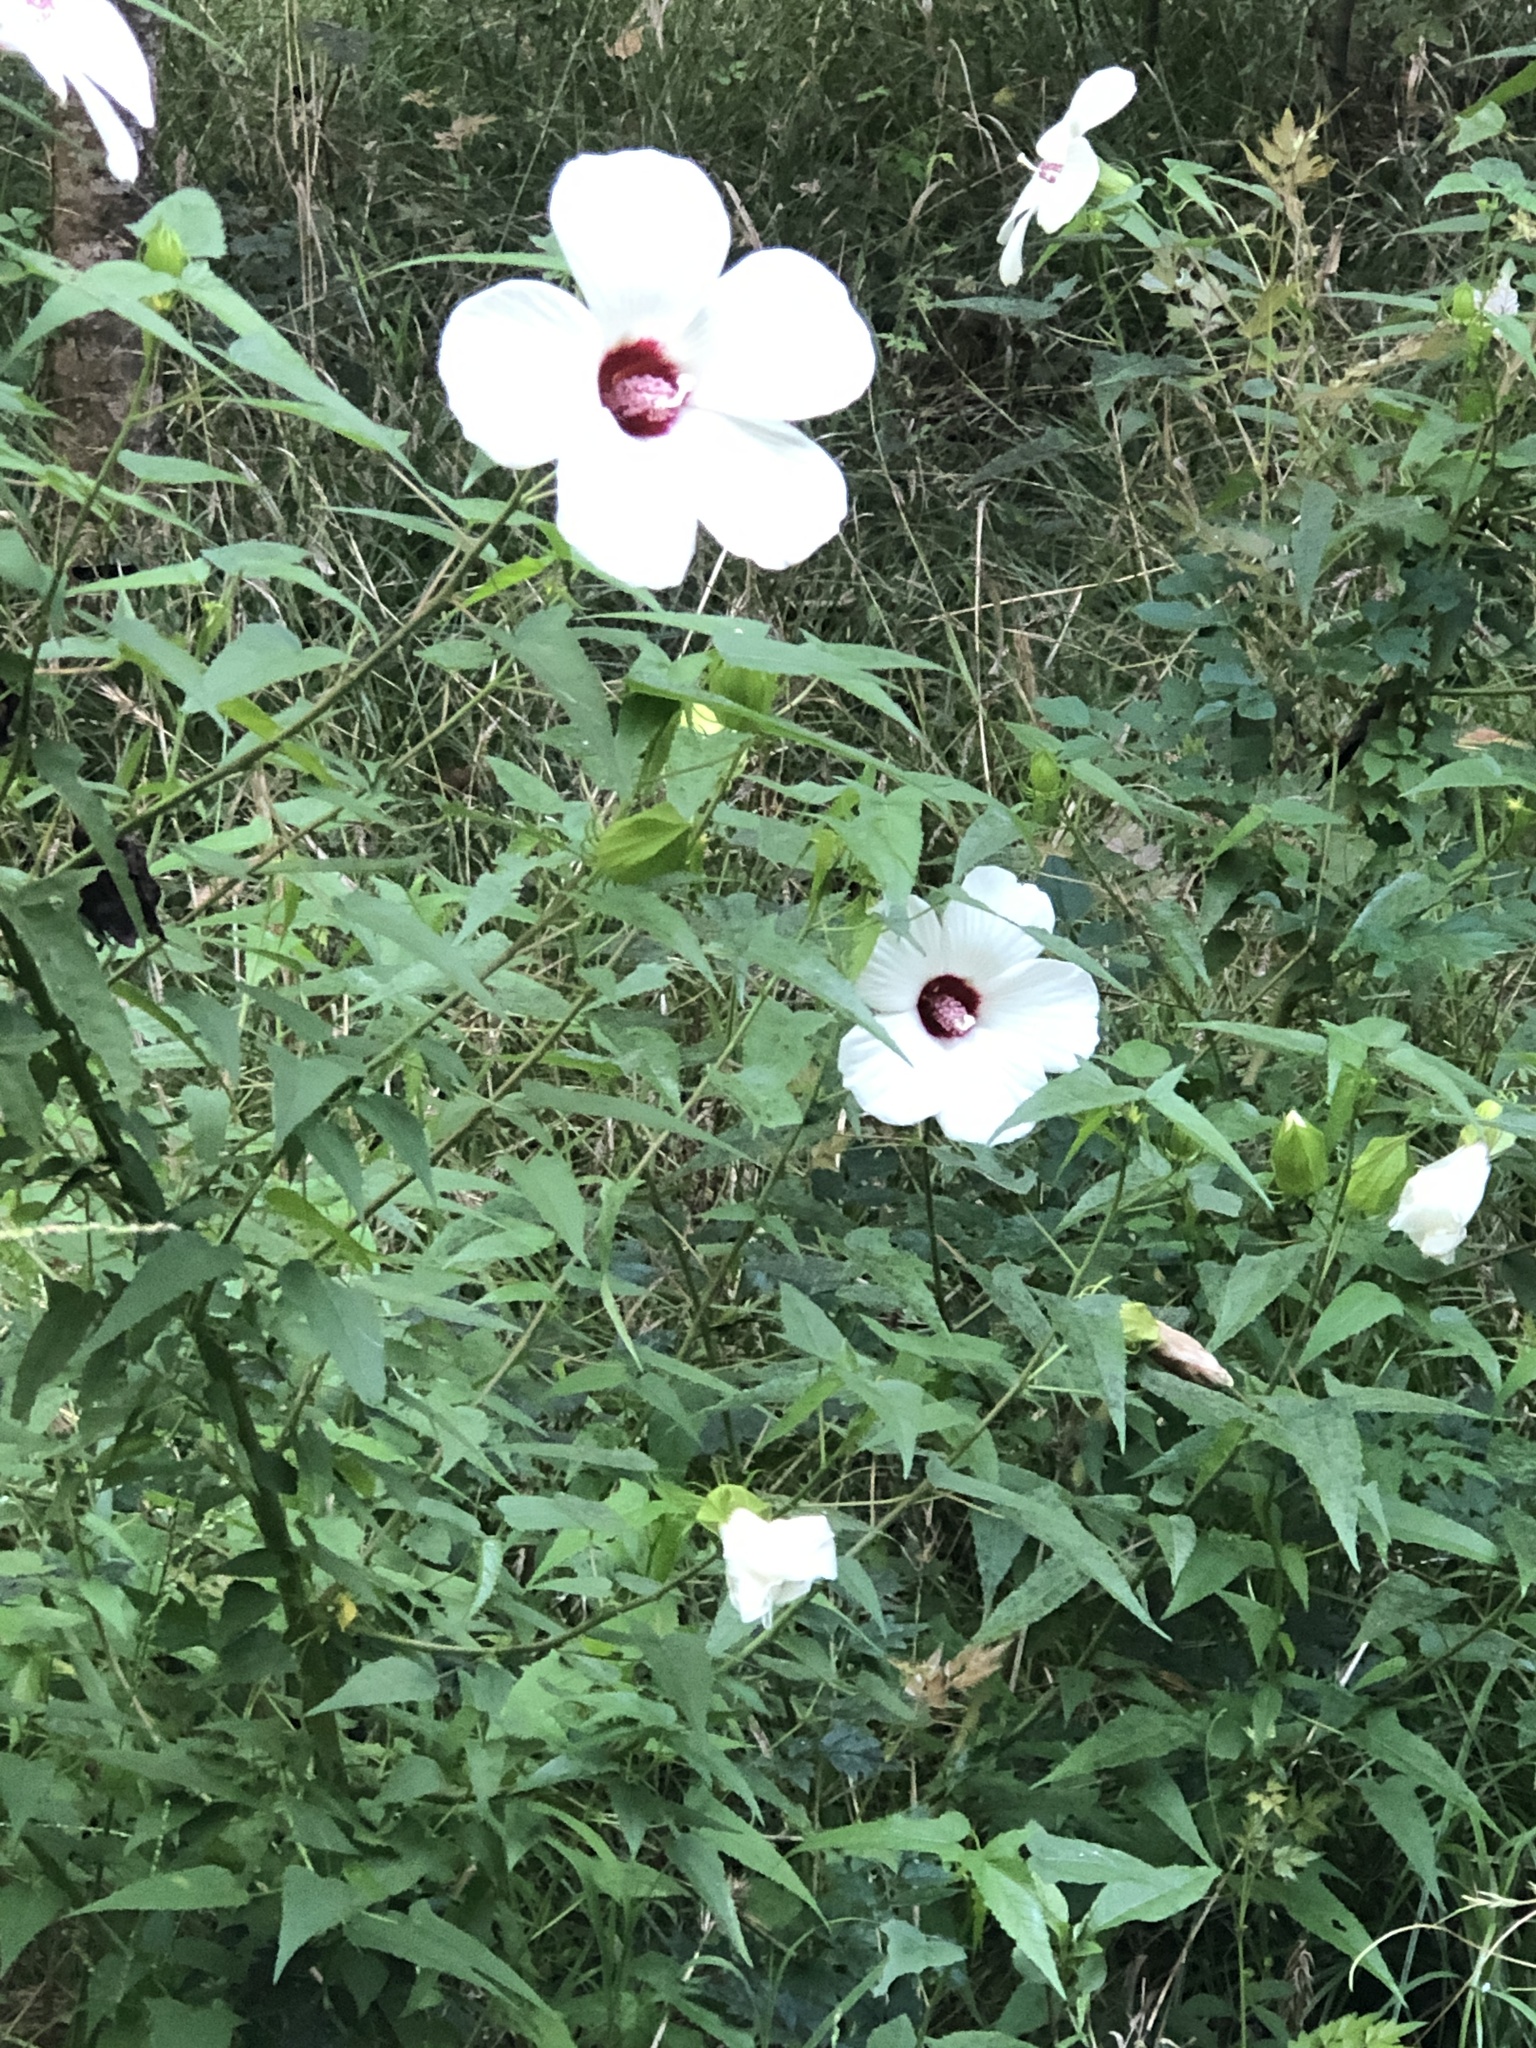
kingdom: Plantae
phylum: Tracheophyta
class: Magnoliopsida
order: Malvales
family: Malvaceae
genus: Hibiscus
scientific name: Hibiscus laevis
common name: Scarlet rose-mallow
